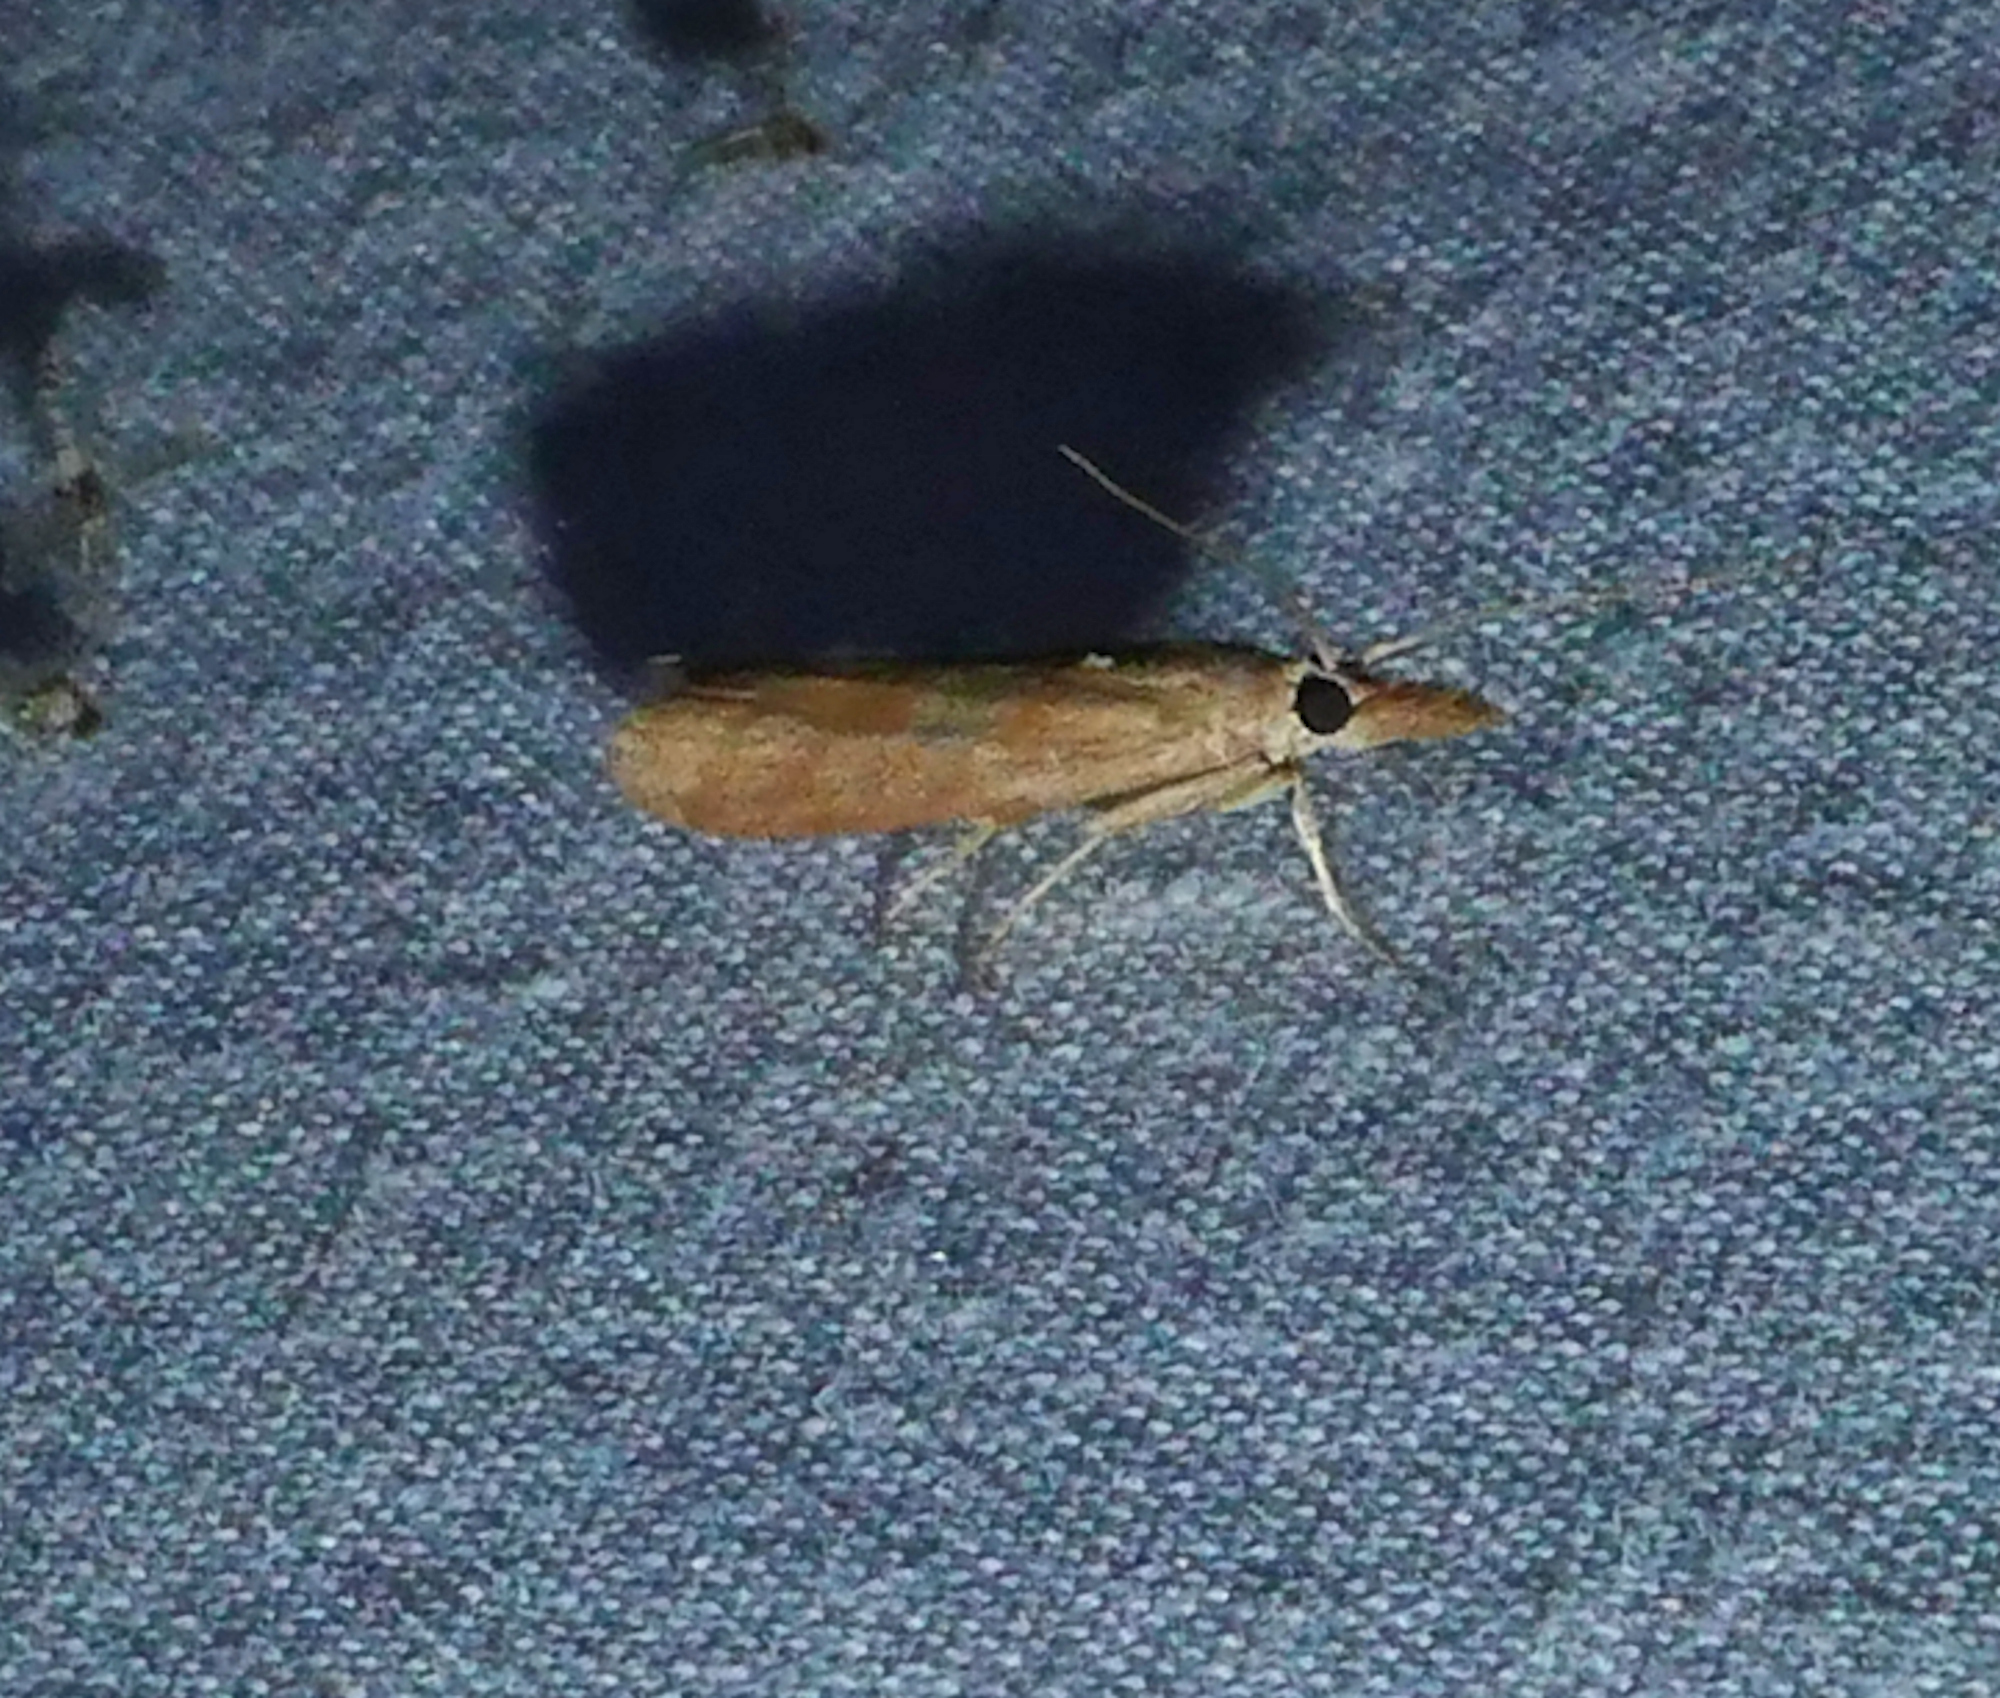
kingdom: Animalia
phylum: Arthropoda
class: Insecta
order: Lepidoptera
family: Pyralidae
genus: Macrorrhinia
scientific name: Macrorrhinia endonephele
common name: Alligator weed stemborer moth
